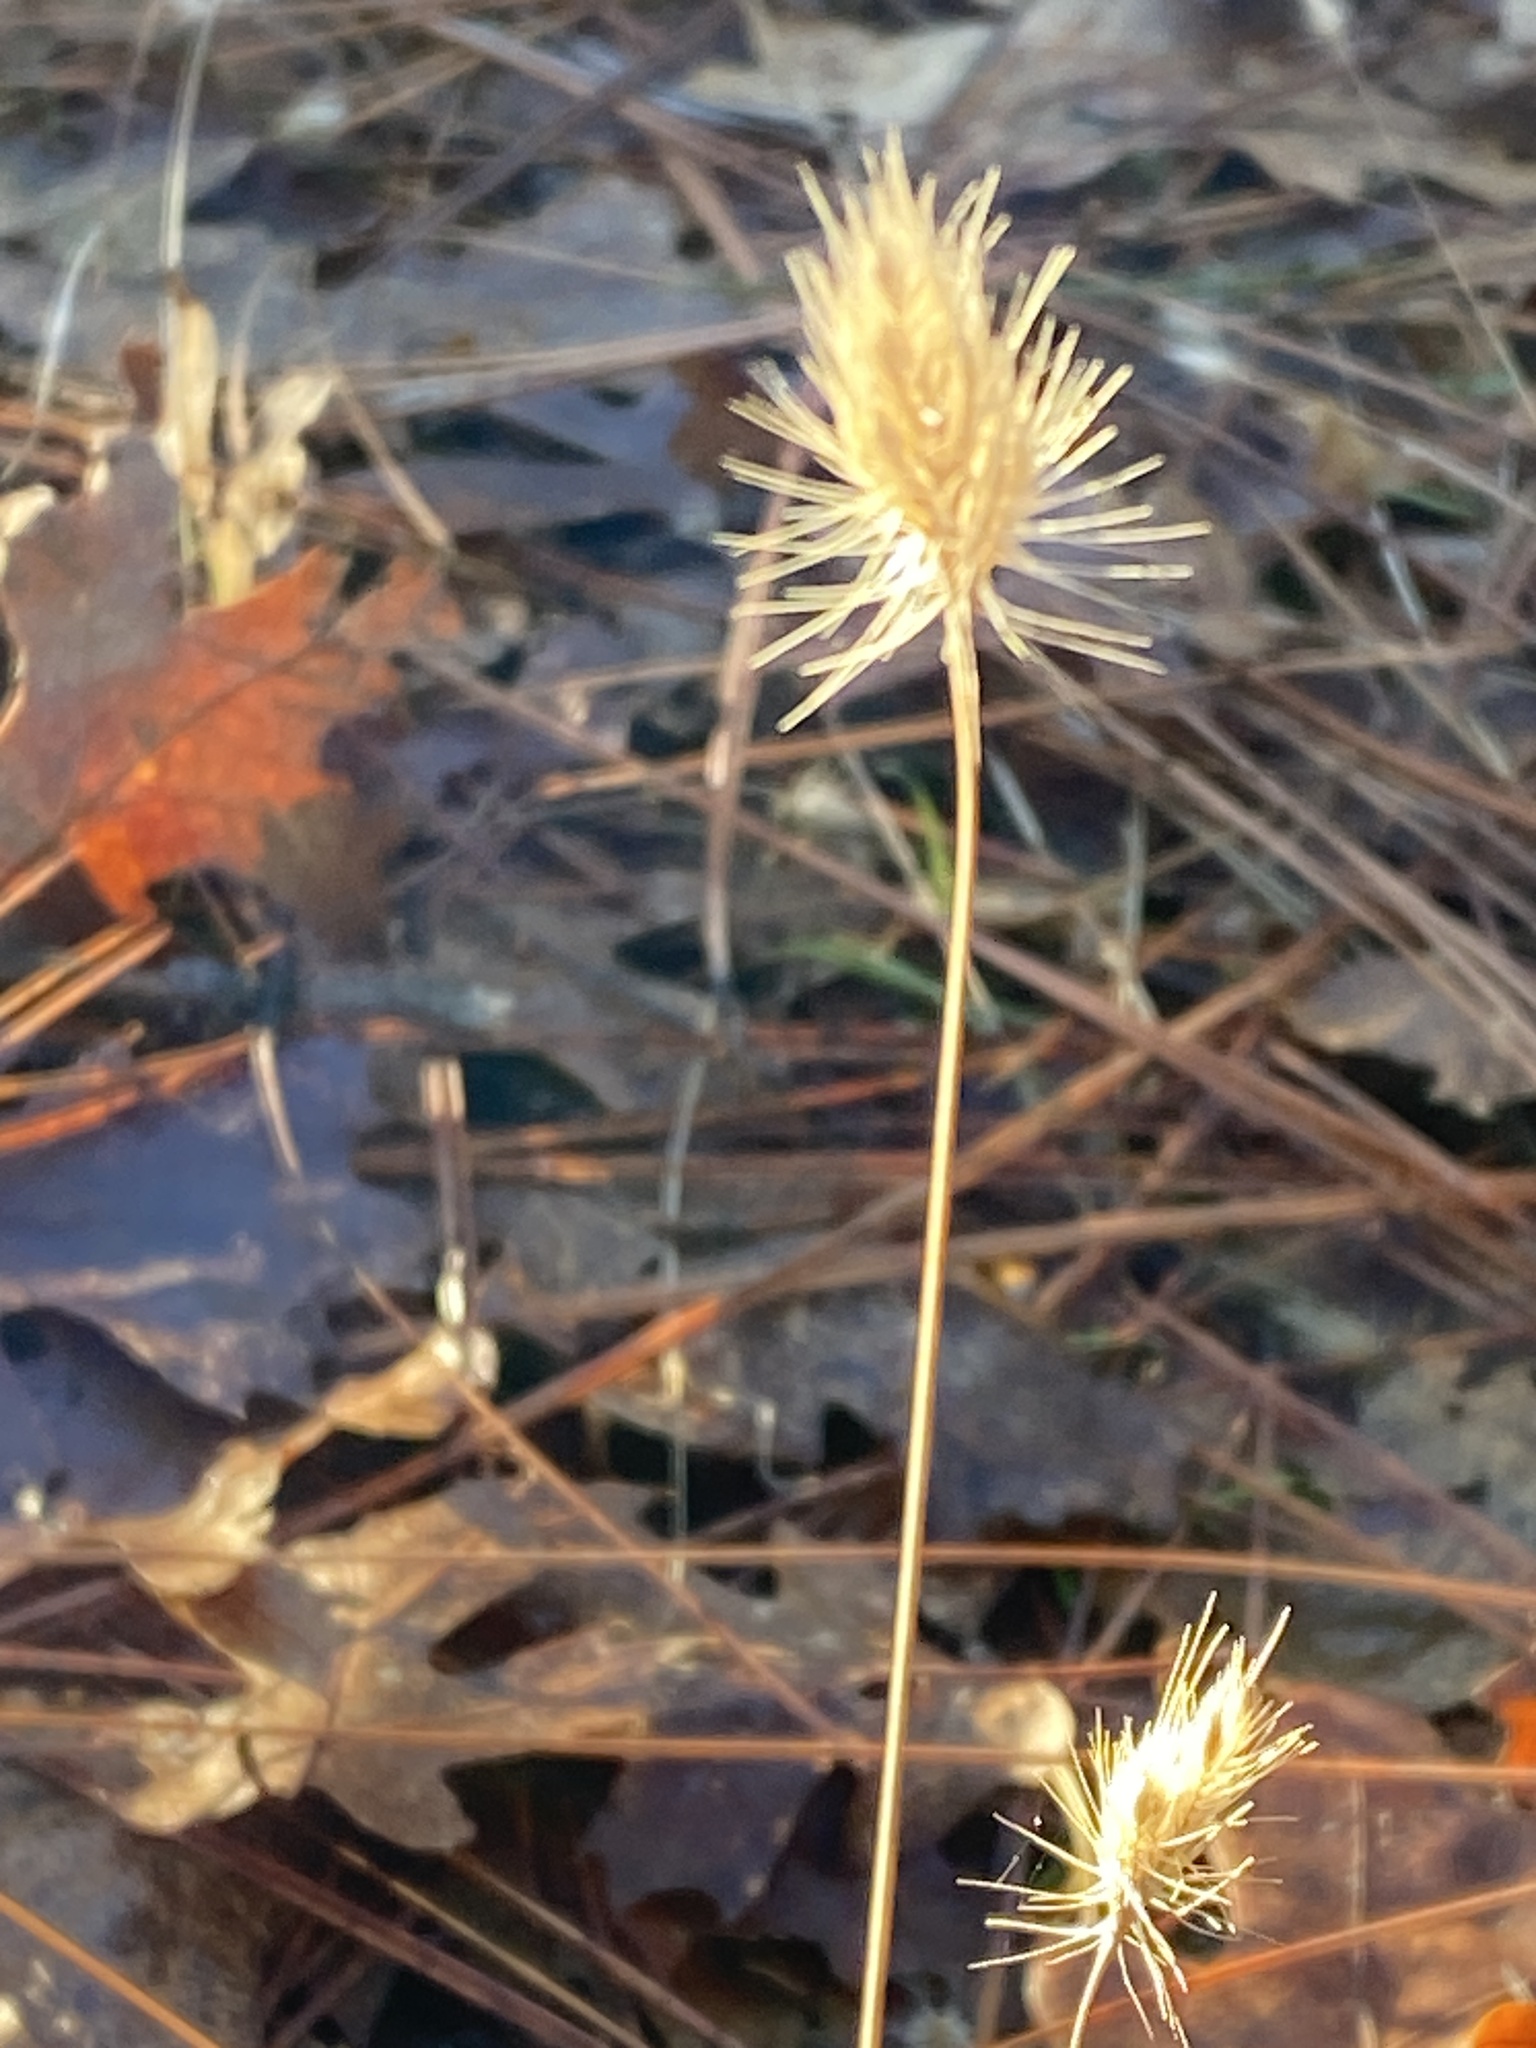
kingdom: Plantae
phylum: Tracheophyta
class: Liliopsida
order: Poales
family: Poaceae
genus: Cynosurus
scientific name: Cynosurus echinatus
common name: Rough dog's-tail
